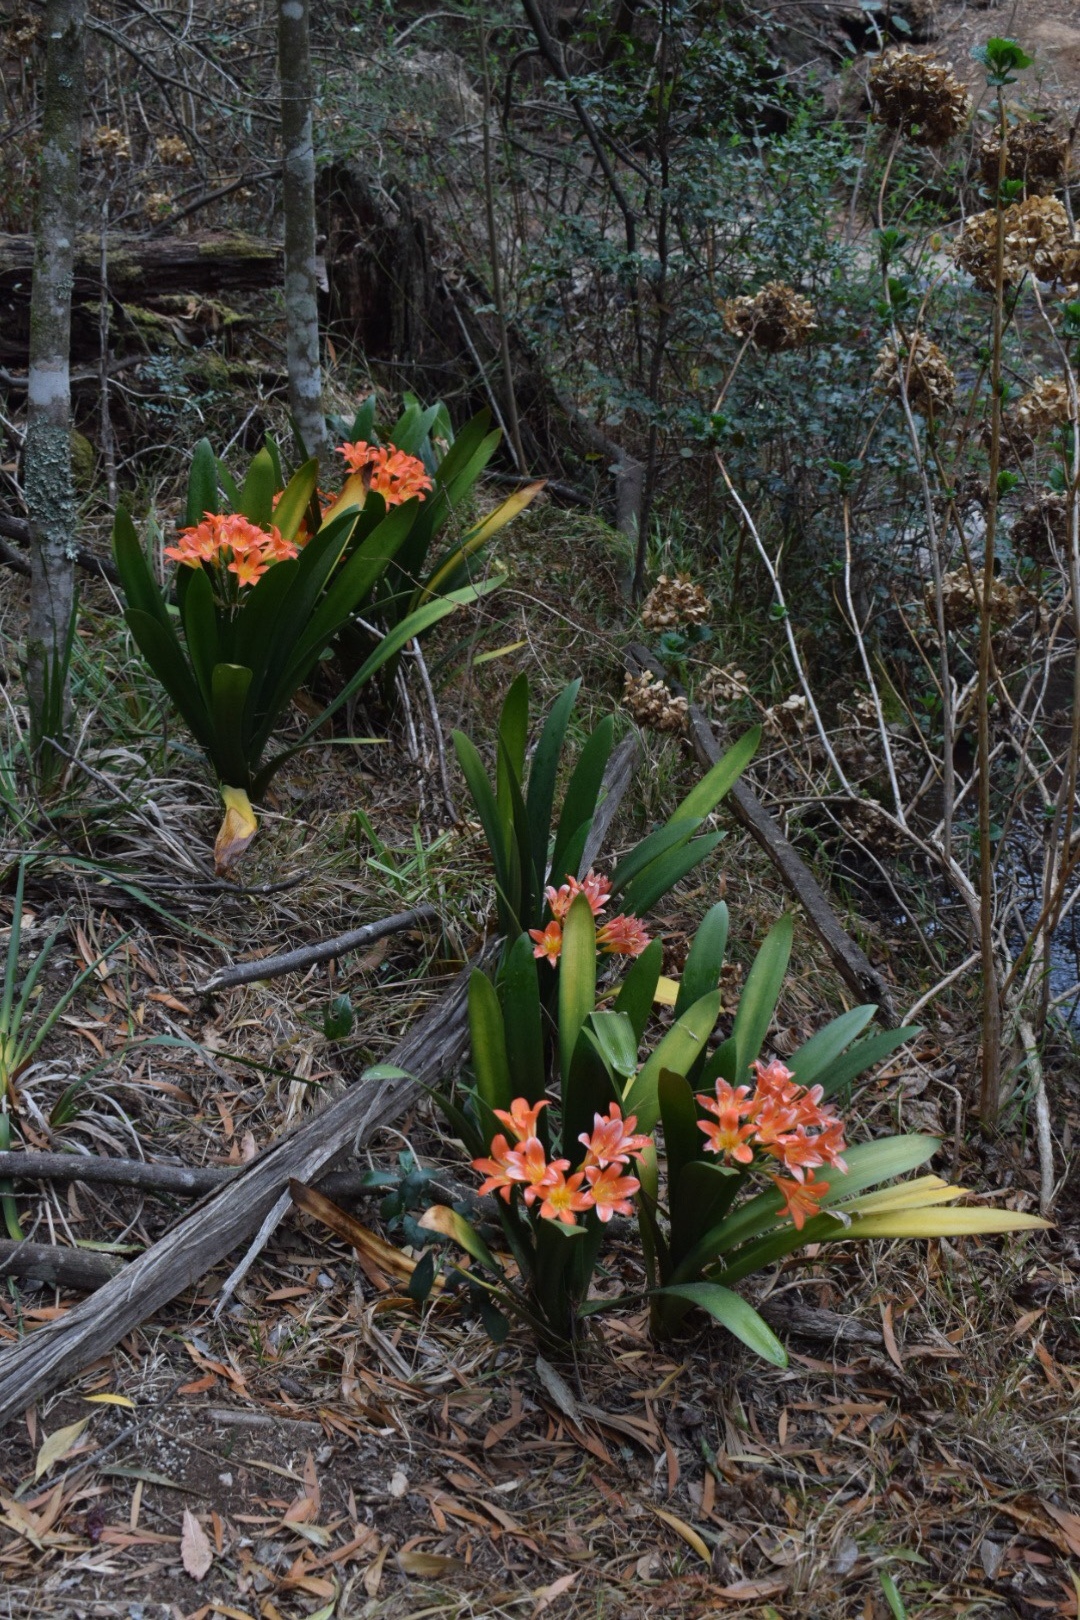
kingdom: Plantae
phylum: Tracheophyta
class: Liliopsida
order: Asparagales
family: Amaryllidaceae
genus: Clivia
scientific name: Clivia miniata
